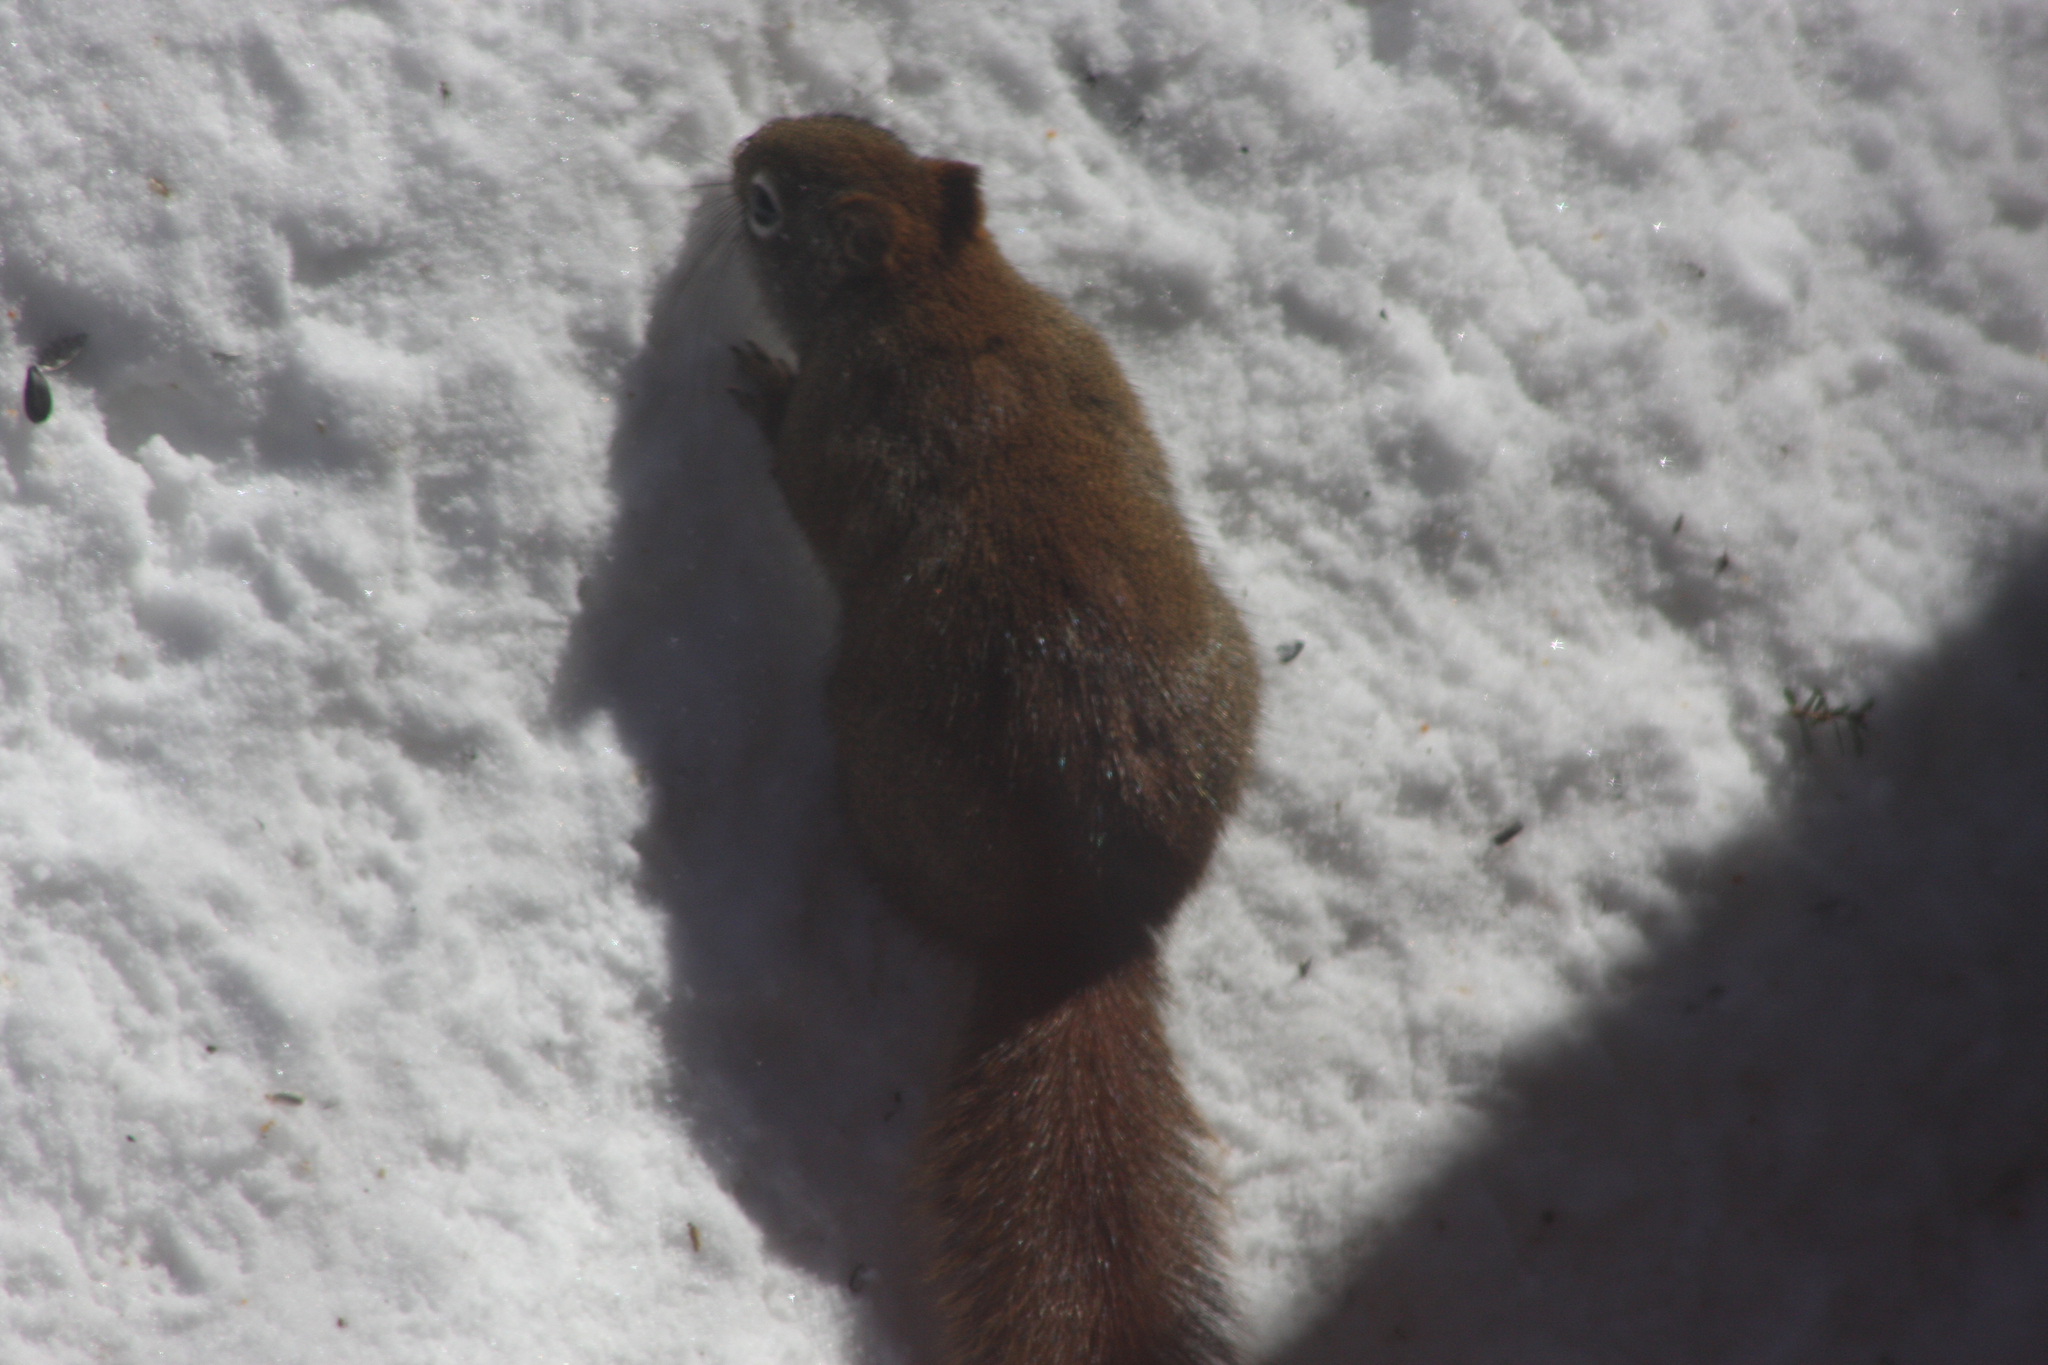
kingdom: Animalia
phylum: Chordata
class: Mammalia
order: Rodentia
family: Sciuridae
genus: Tamiasciurus
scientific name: Tamiasciurus hudsonicus
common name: Red squirrel
